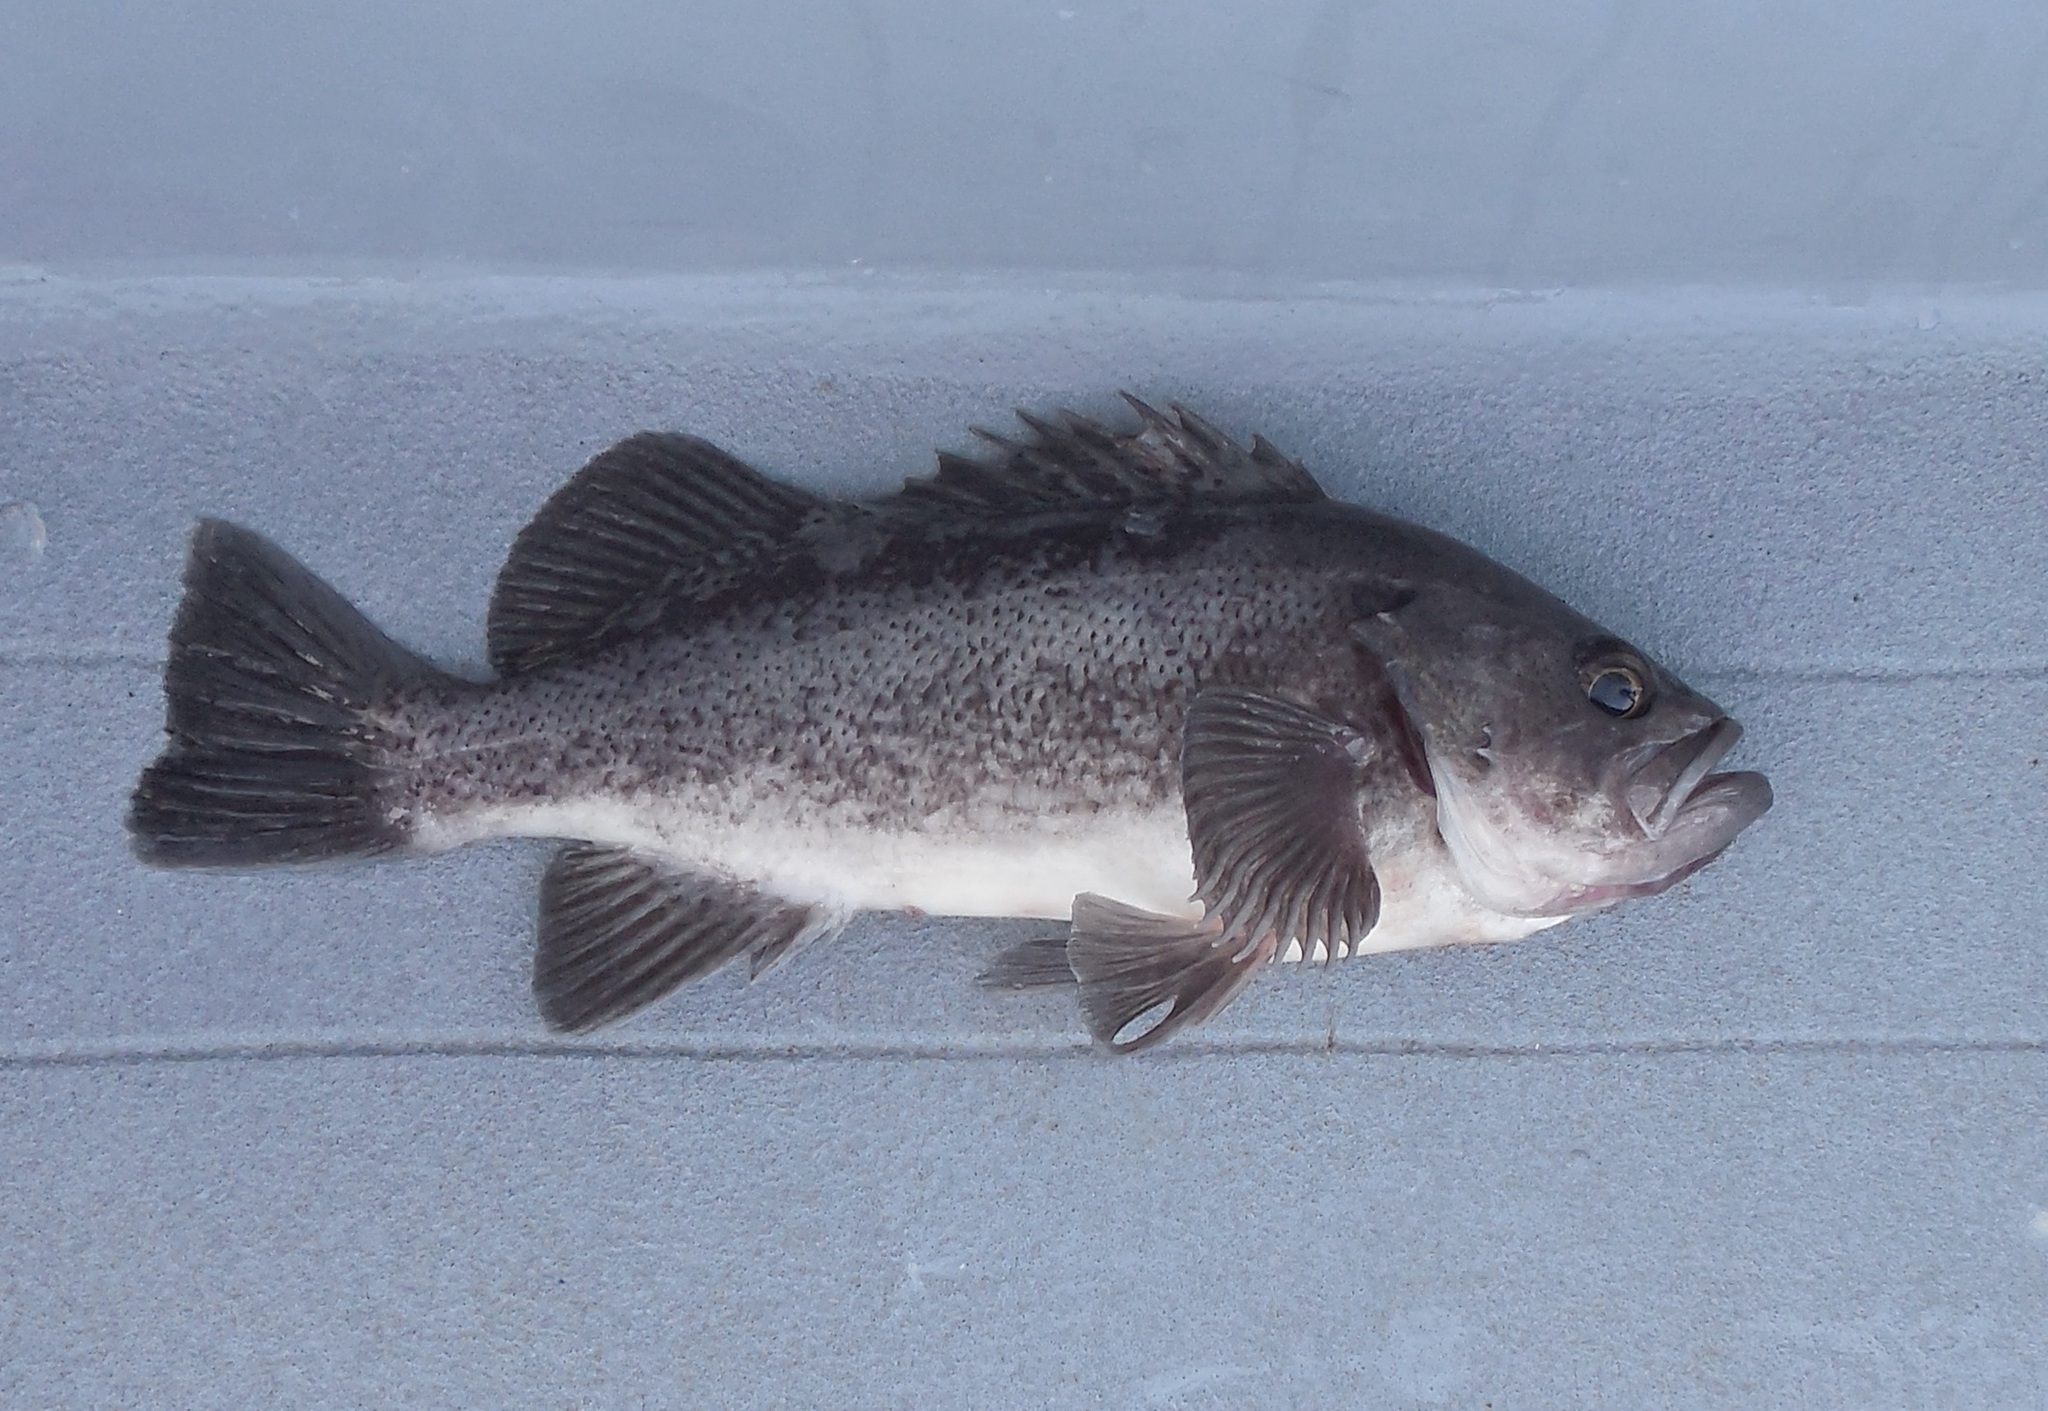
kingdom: Animalia
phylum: Chordata
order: Scorpaeniformes
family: Sebastidae
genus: Sebastes
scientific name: Sebastes melanops
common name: Black rockfish
